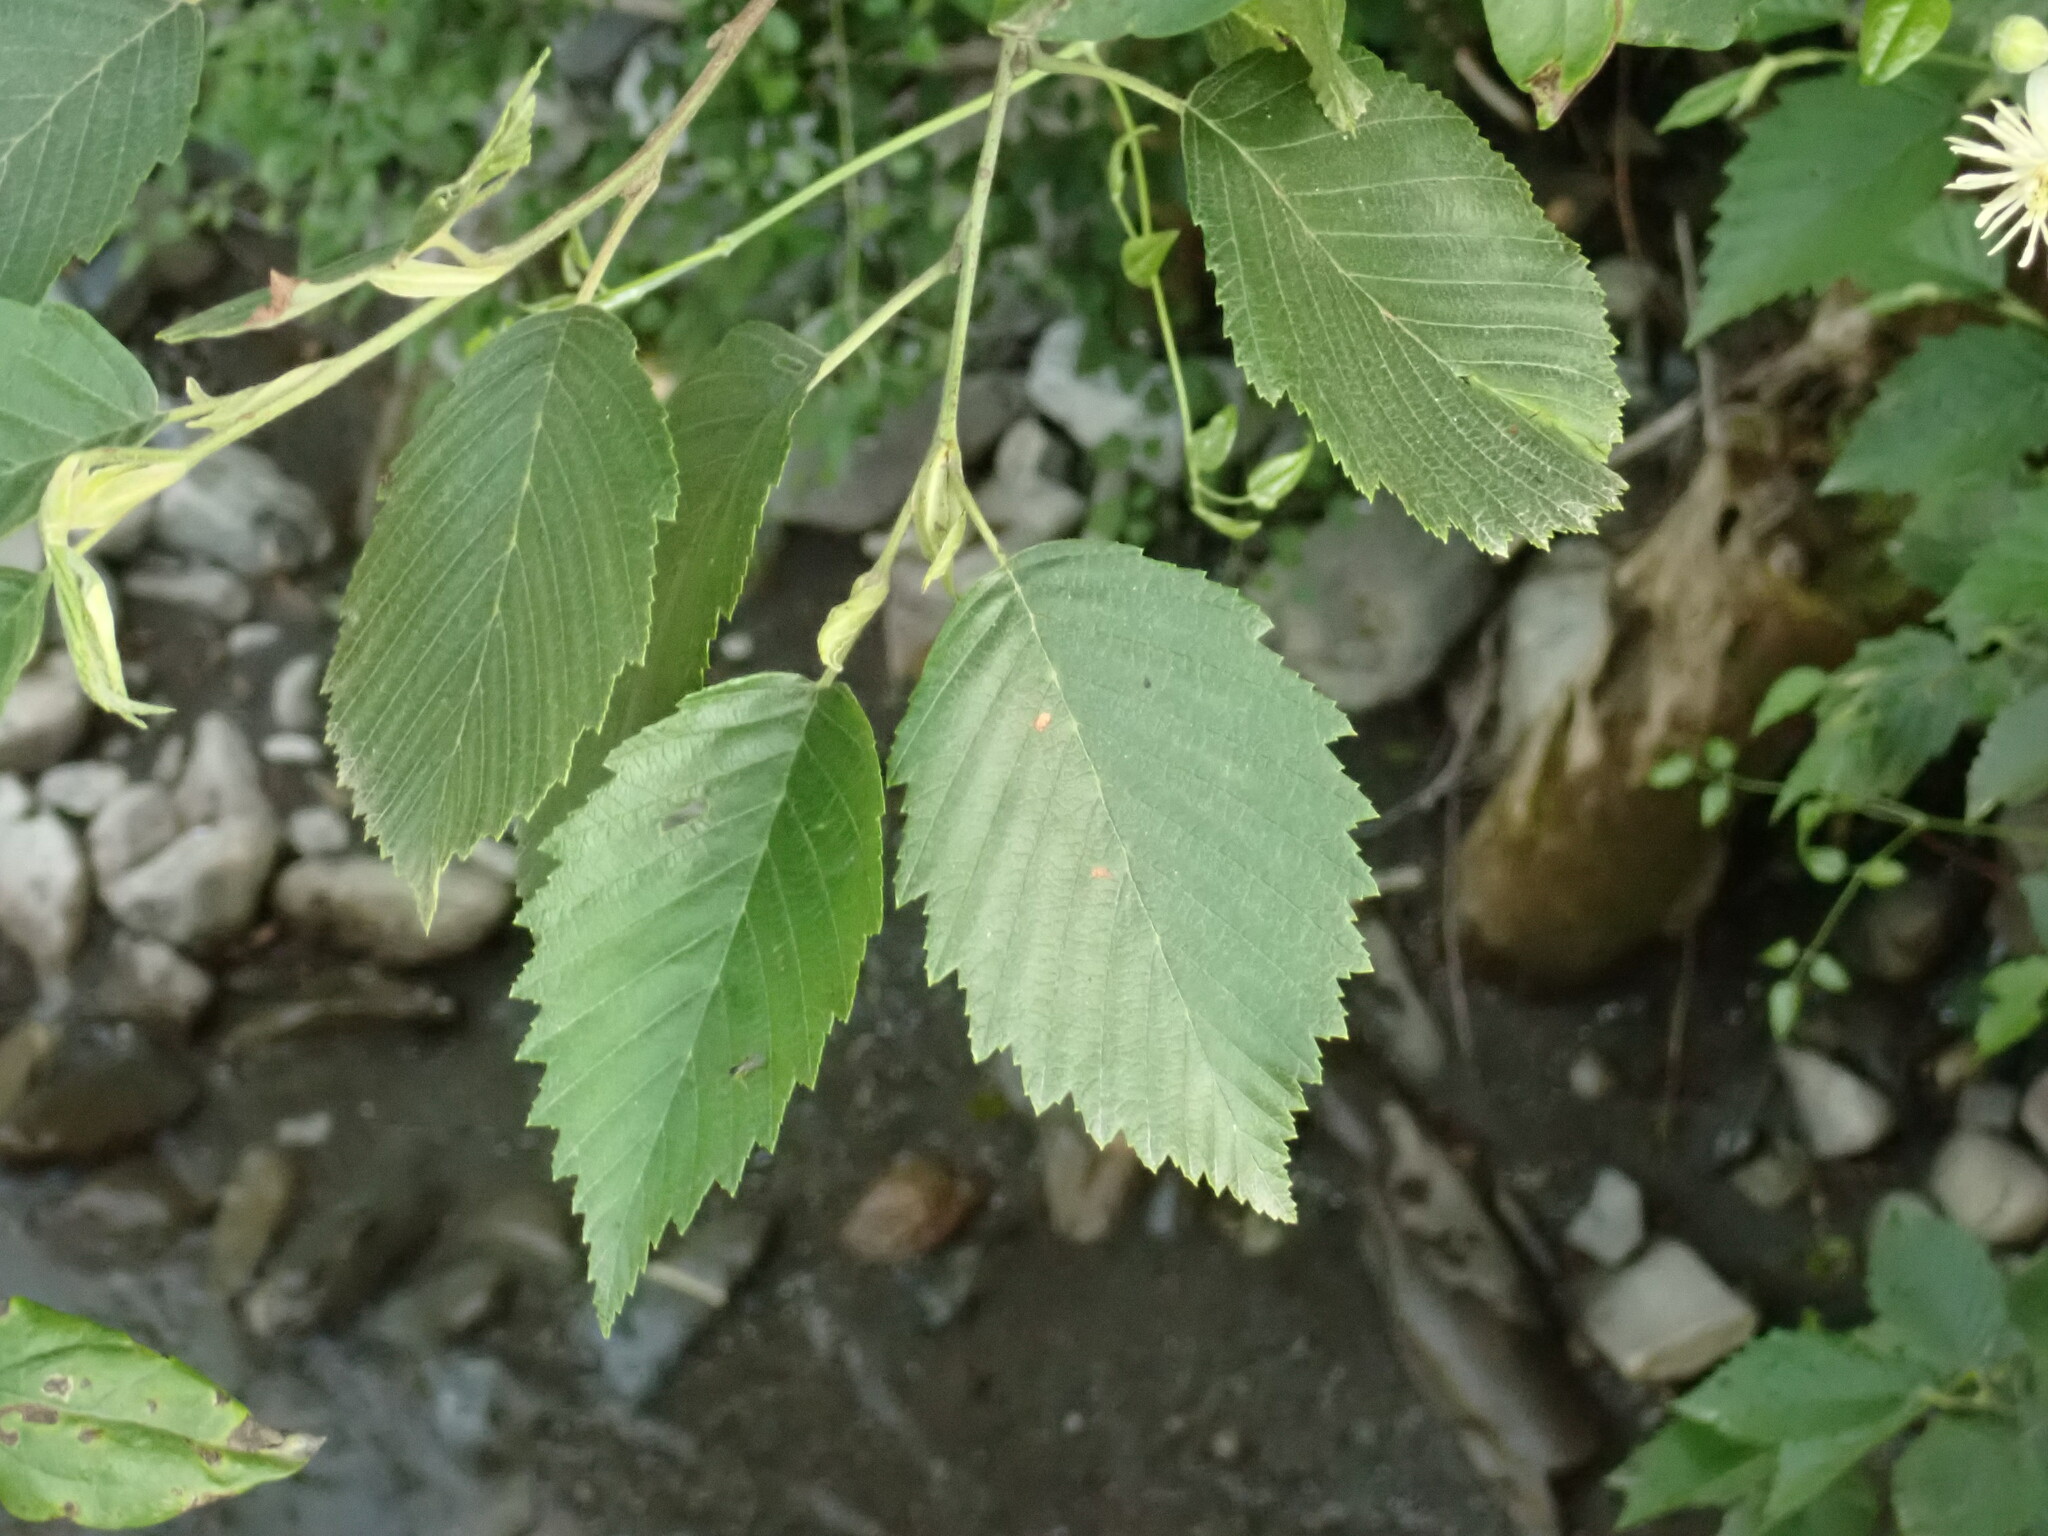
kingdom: Plantae
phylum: Tracheophyta
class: Magnoliopsida
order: Fagales
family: Betulaceae
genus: Alnus
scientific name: Alnus incana
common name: Grey alder
